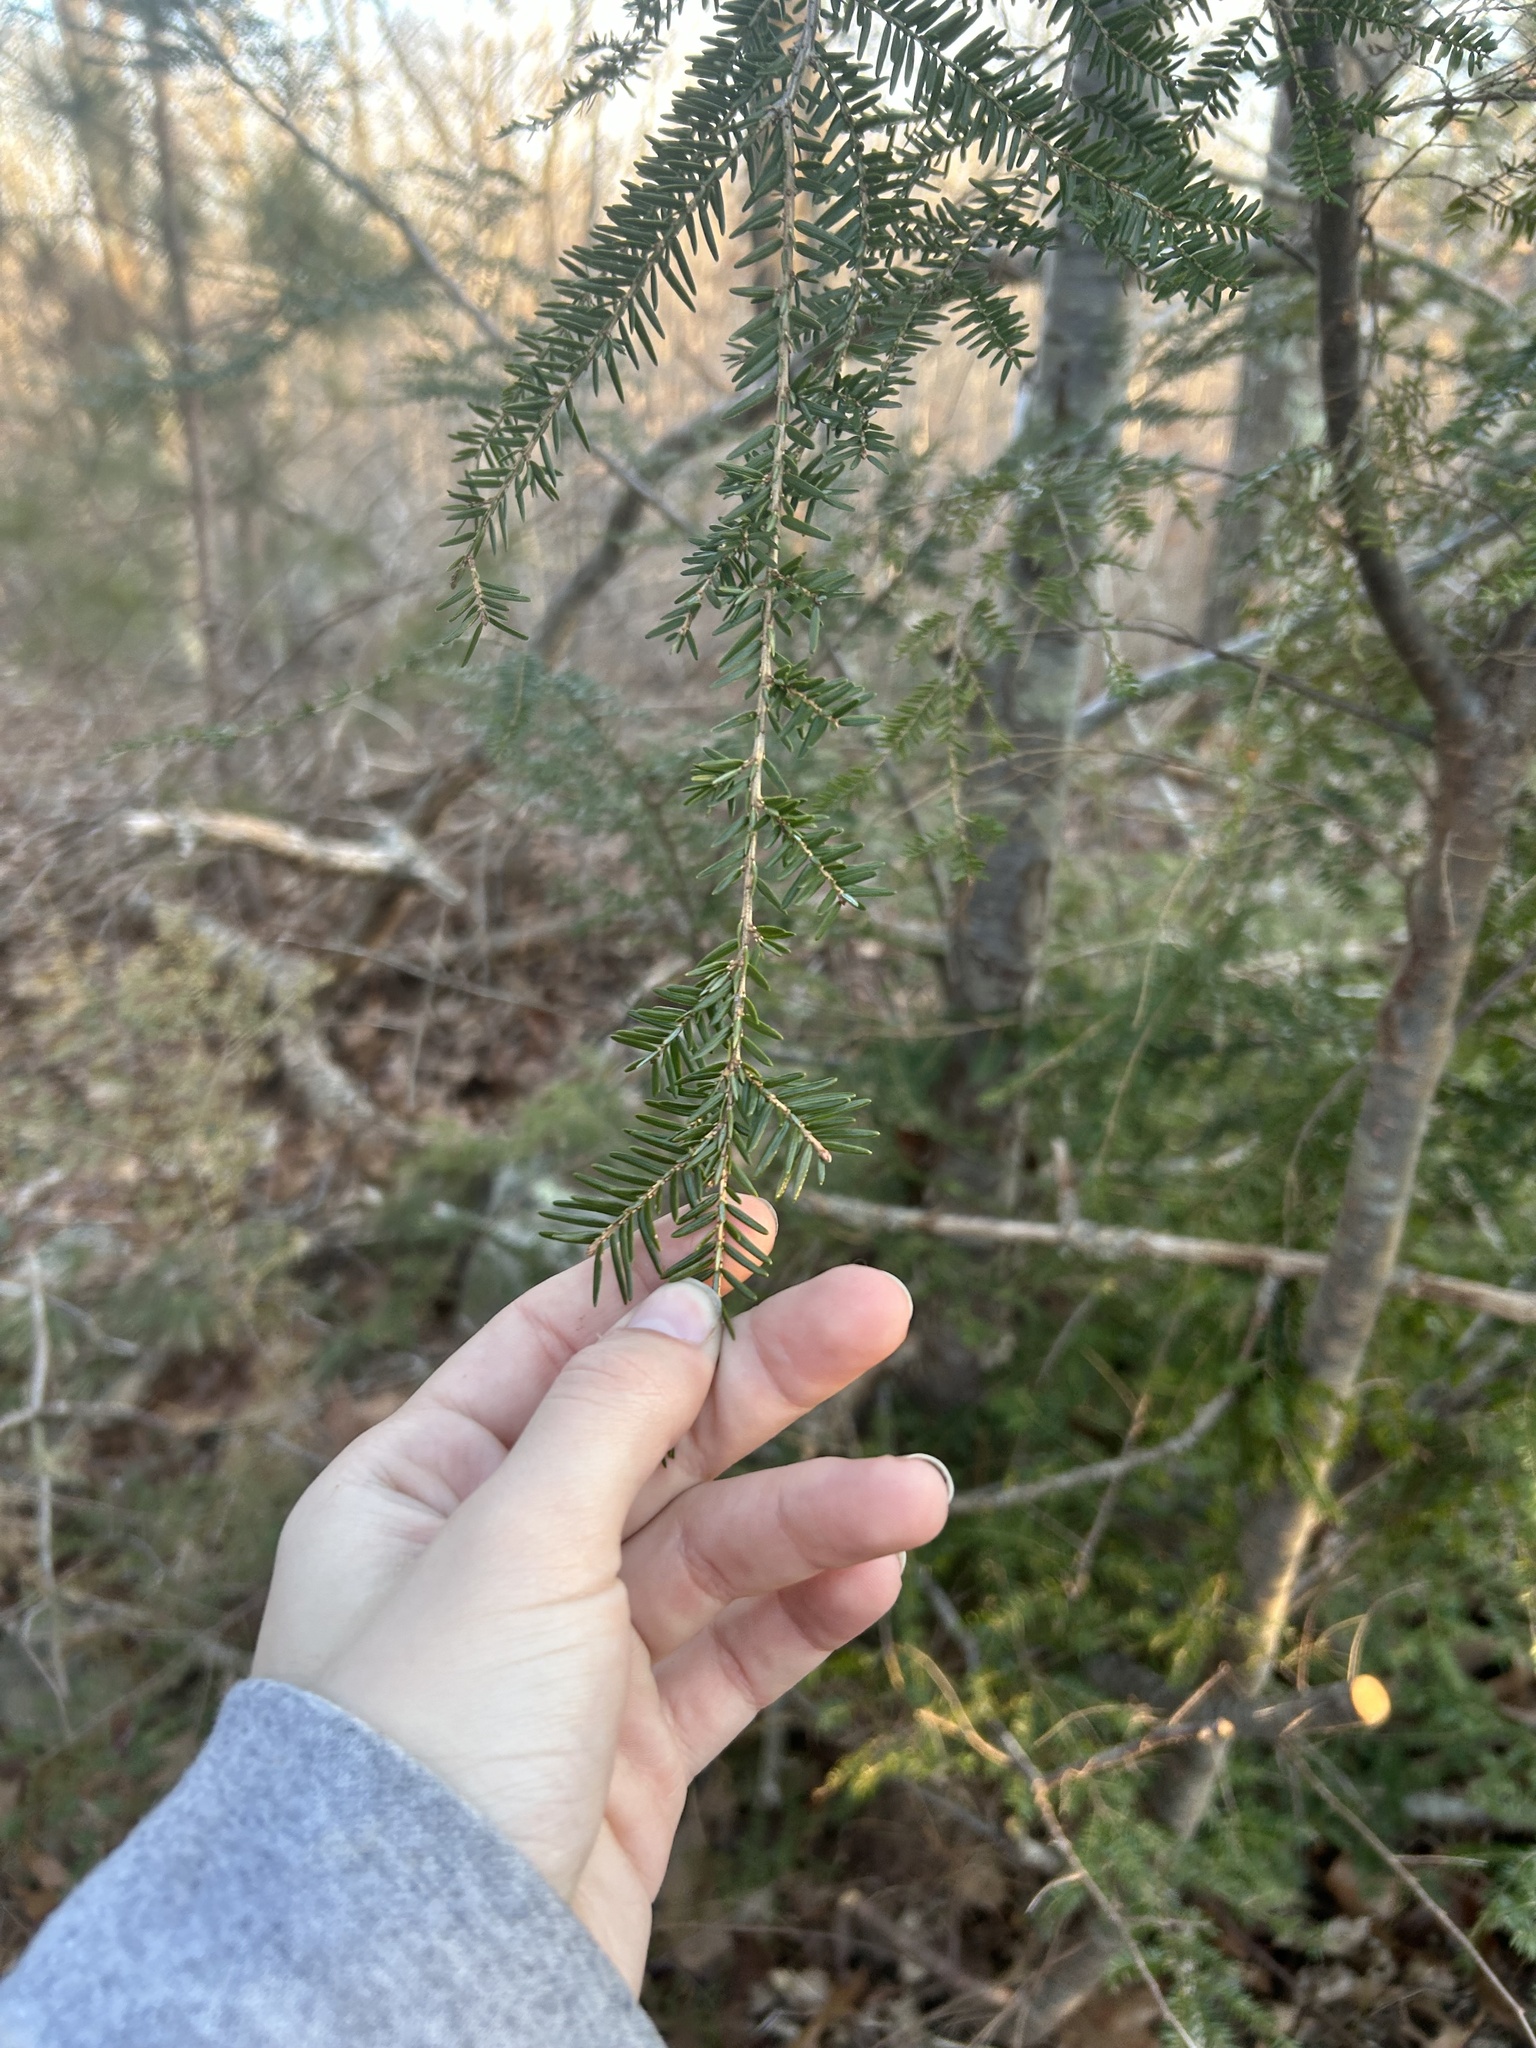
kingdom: Plantae
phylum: Tracheophyta
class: Pinopsida
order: Pinales
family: Pinaceae
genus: Tsuga
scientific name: Tsuga canadensis
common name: Eastern hemlock
